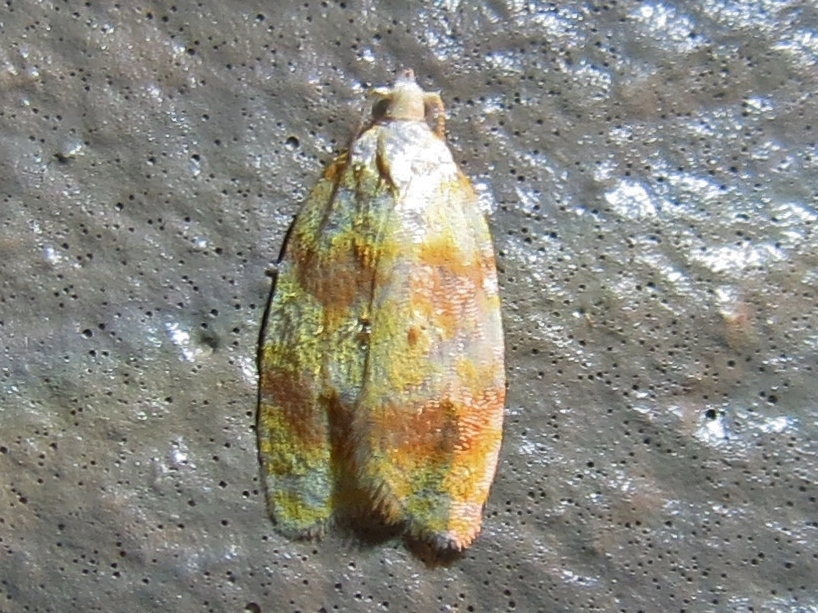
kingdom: Animalia
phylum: Arthropoda
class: Insecta
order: Lepidoptera
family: Tortricidae
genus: Acleris
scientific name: Acleris semipurpurana
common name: Oak leaftier moth
